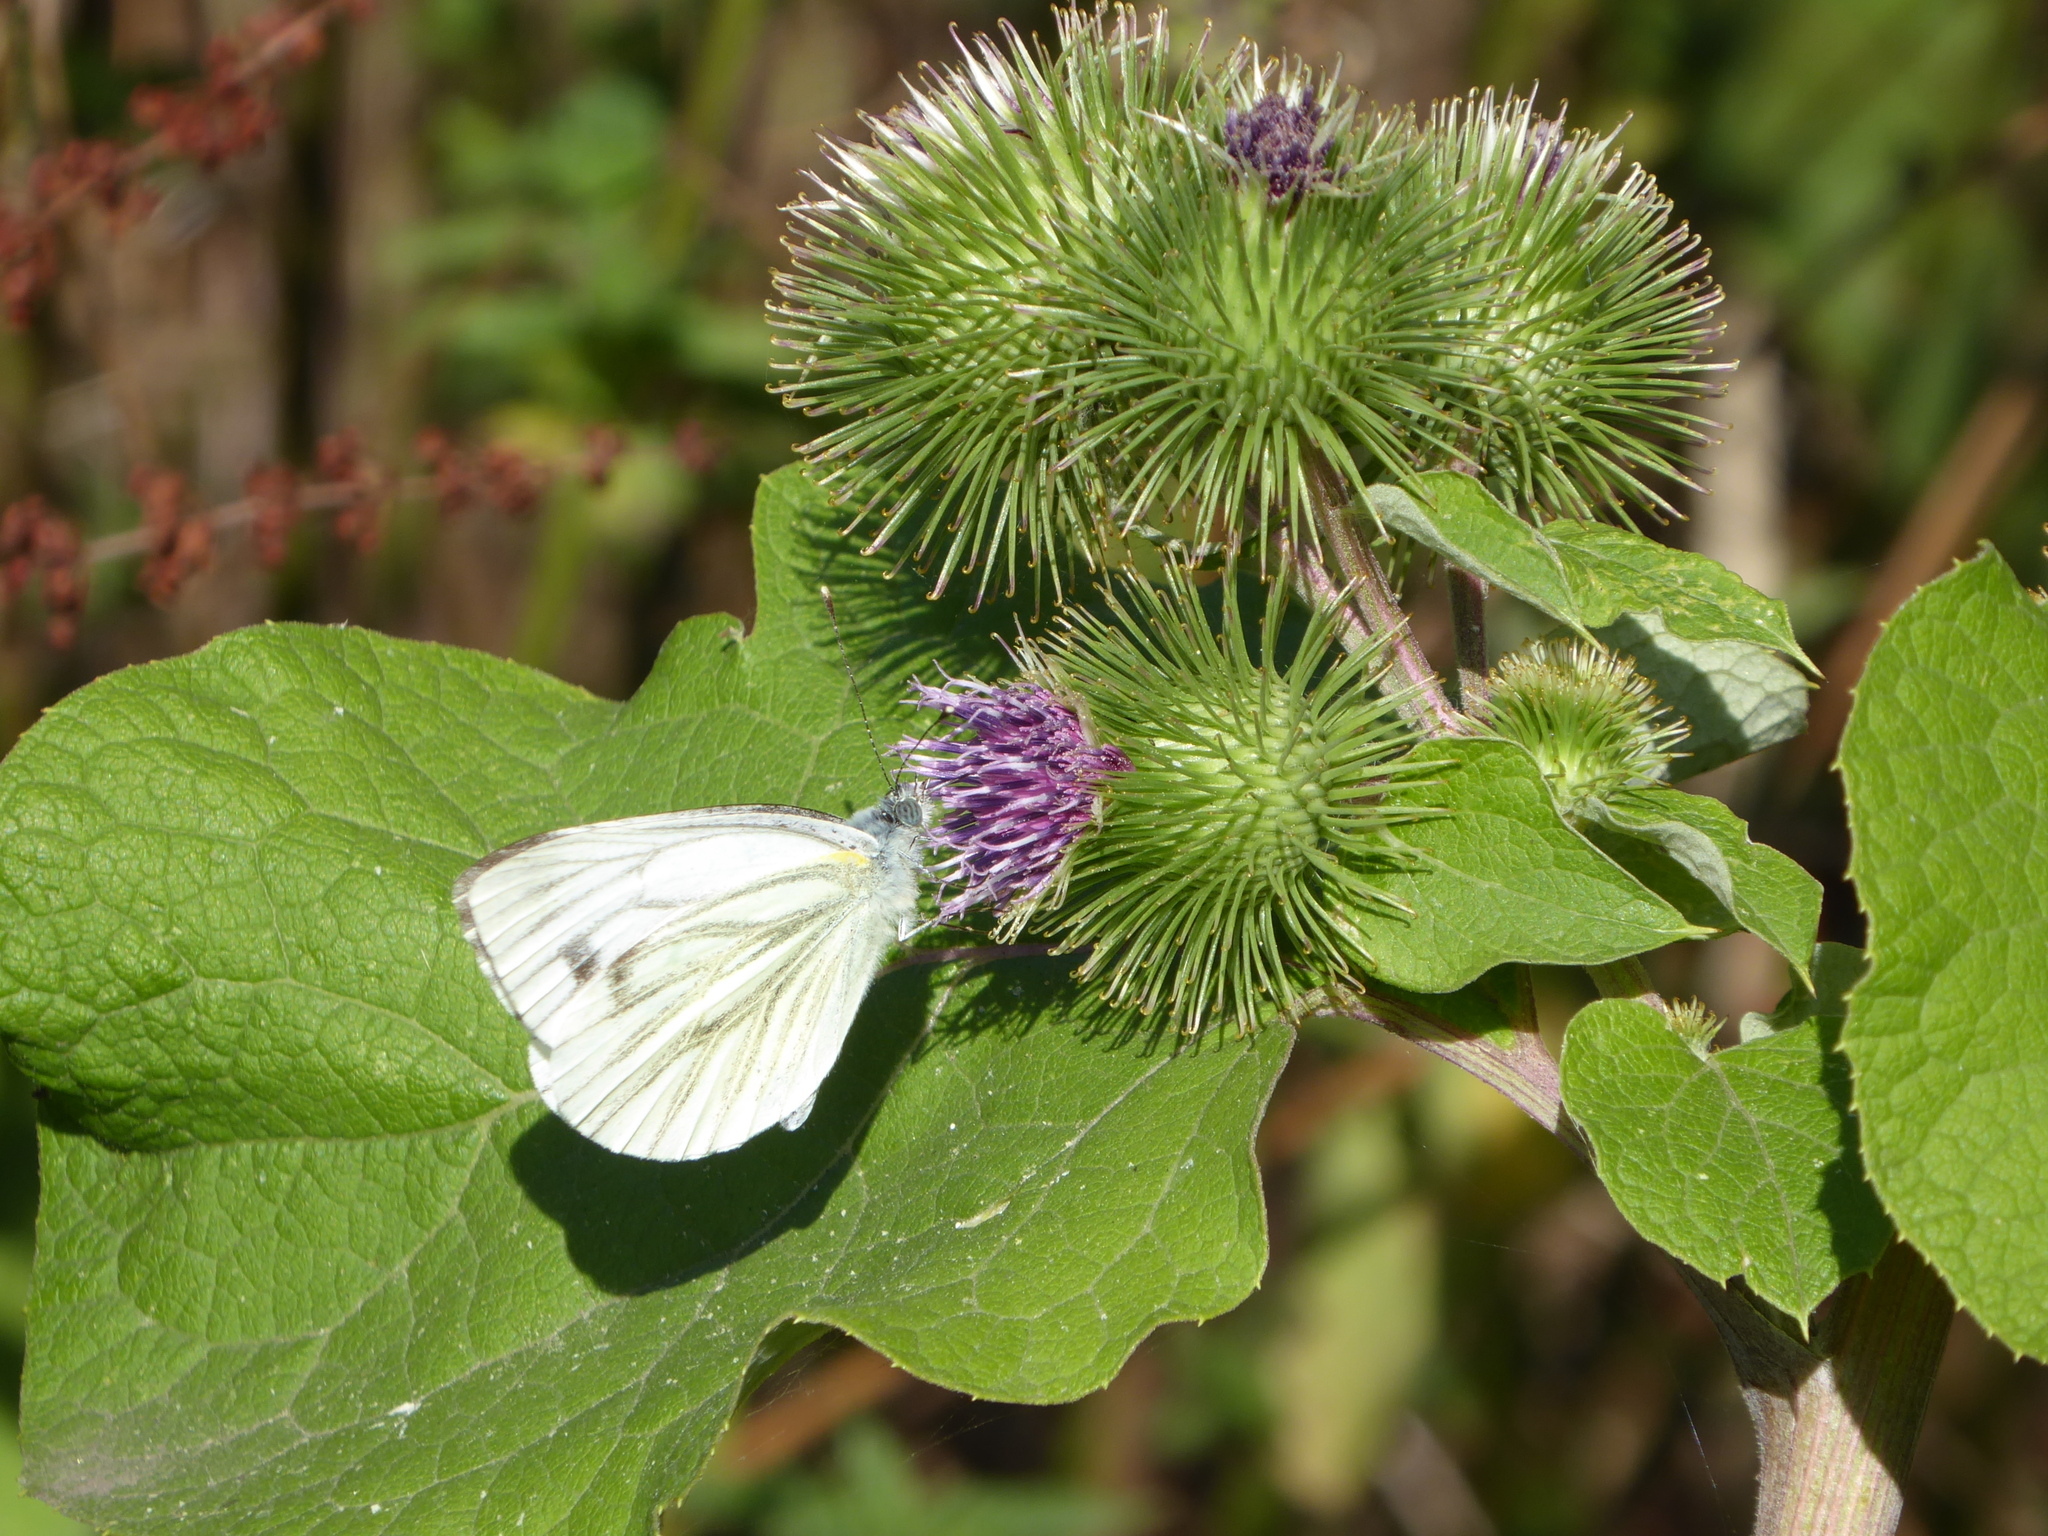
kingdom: Animalia
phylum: Arthropoda
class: Insecta
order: Lepidoptera
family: Pieridae
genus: Pieris
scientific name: Pieris napi
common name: Green-veined white
